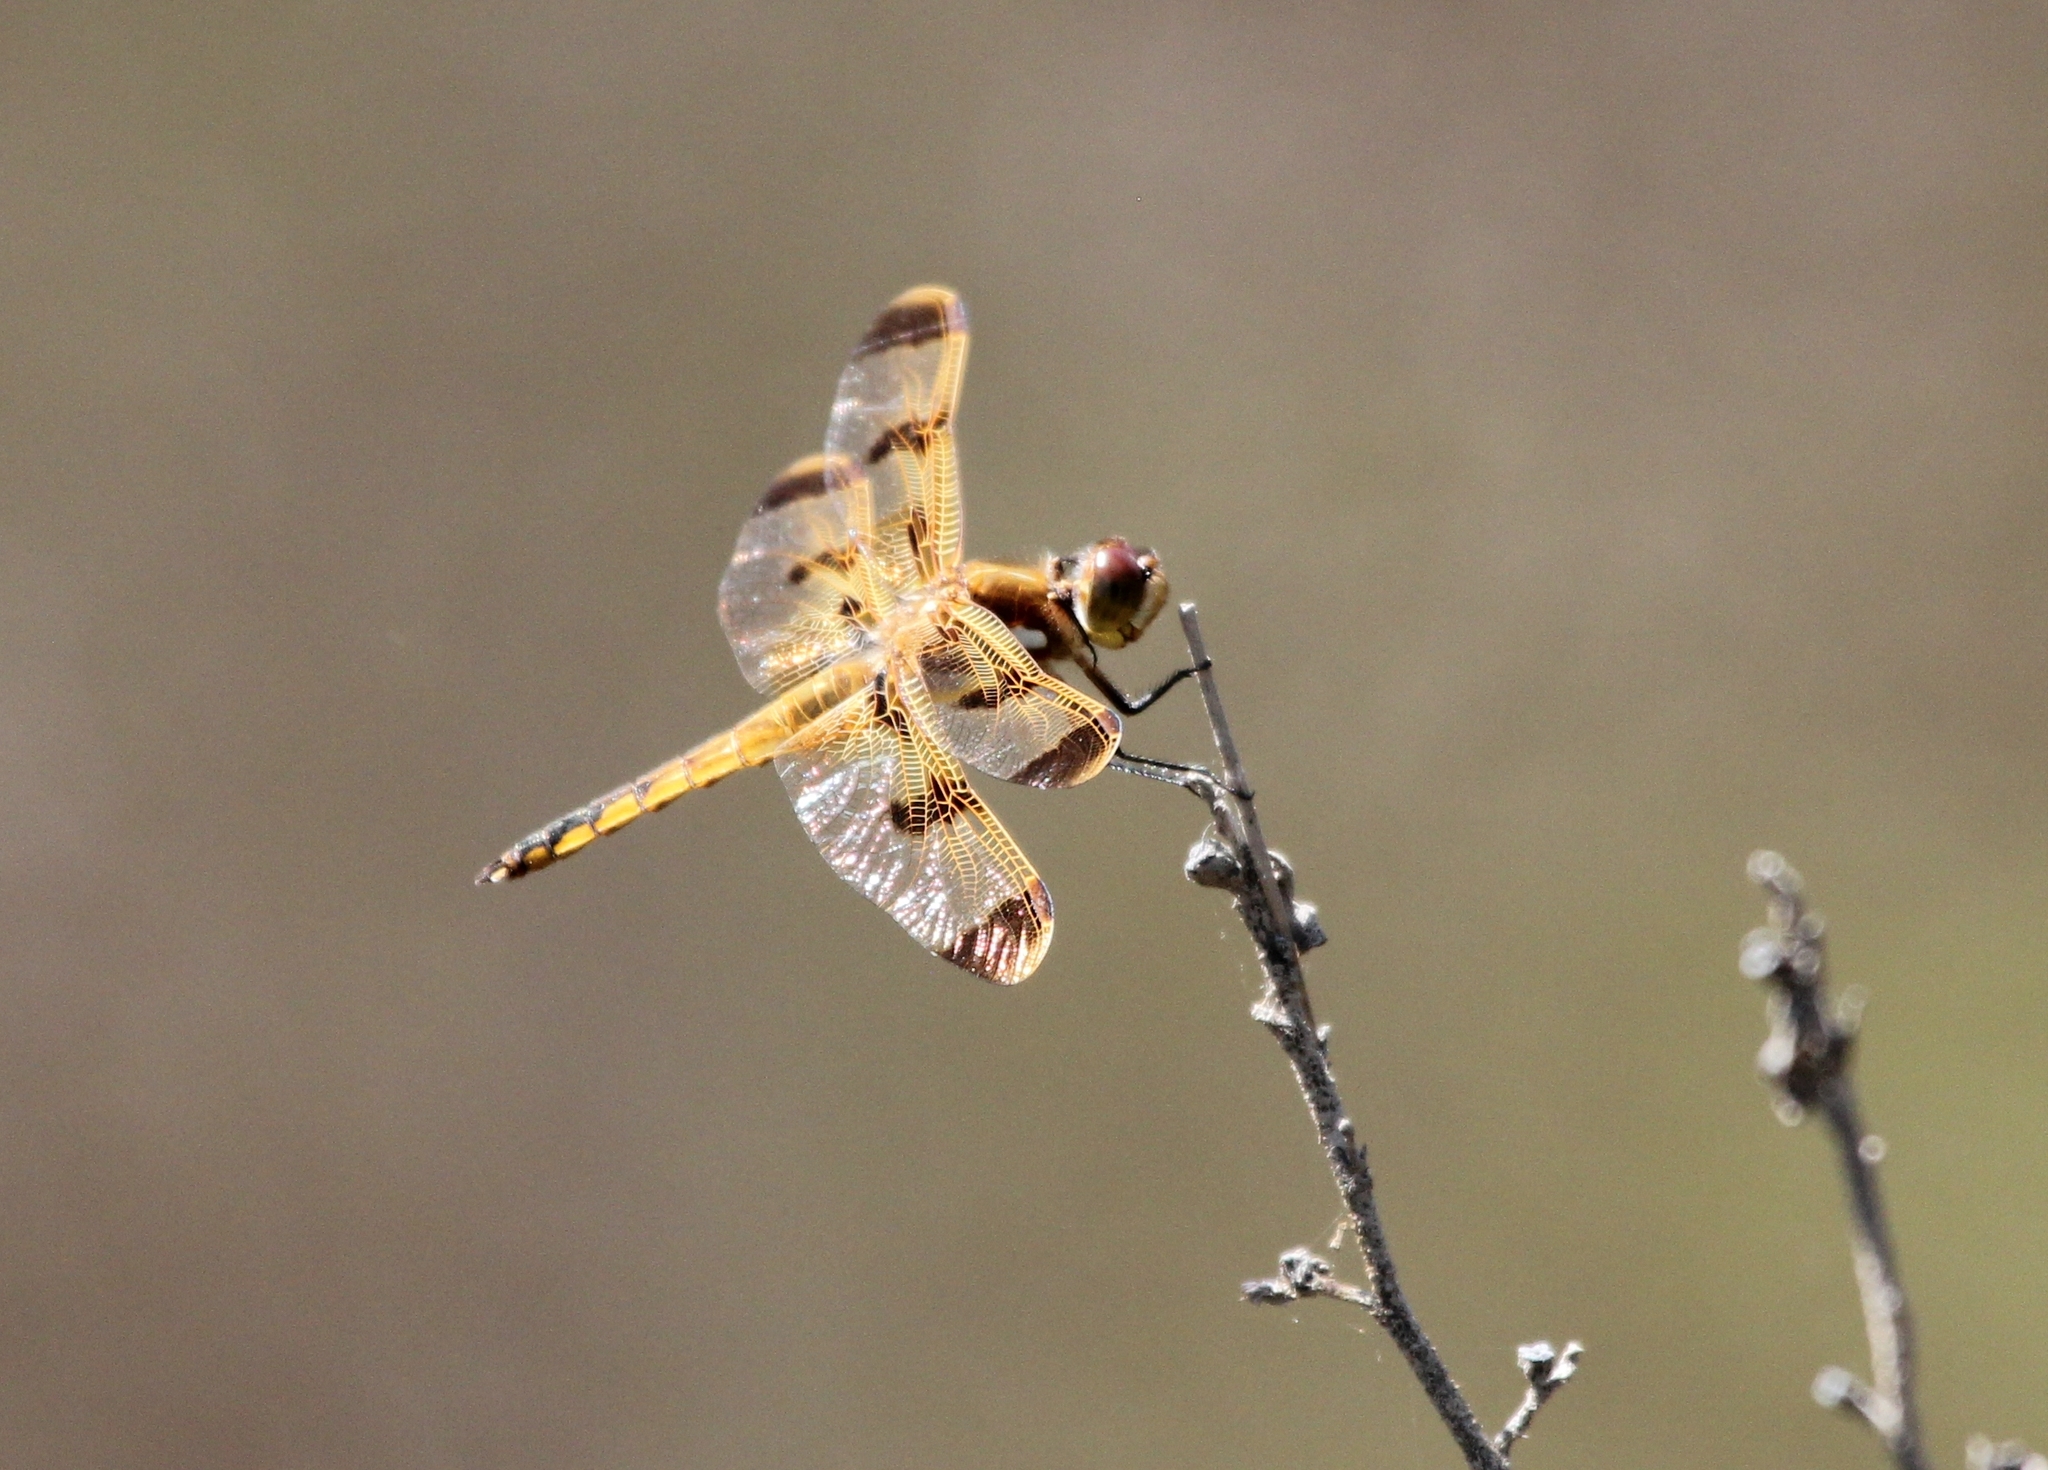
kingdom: Animalia
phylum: Arthropoda
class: Insecta
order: Odonata
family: Libellulidae
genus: Libellula
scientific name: Libellula semifasciata
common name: Painted skimmer
